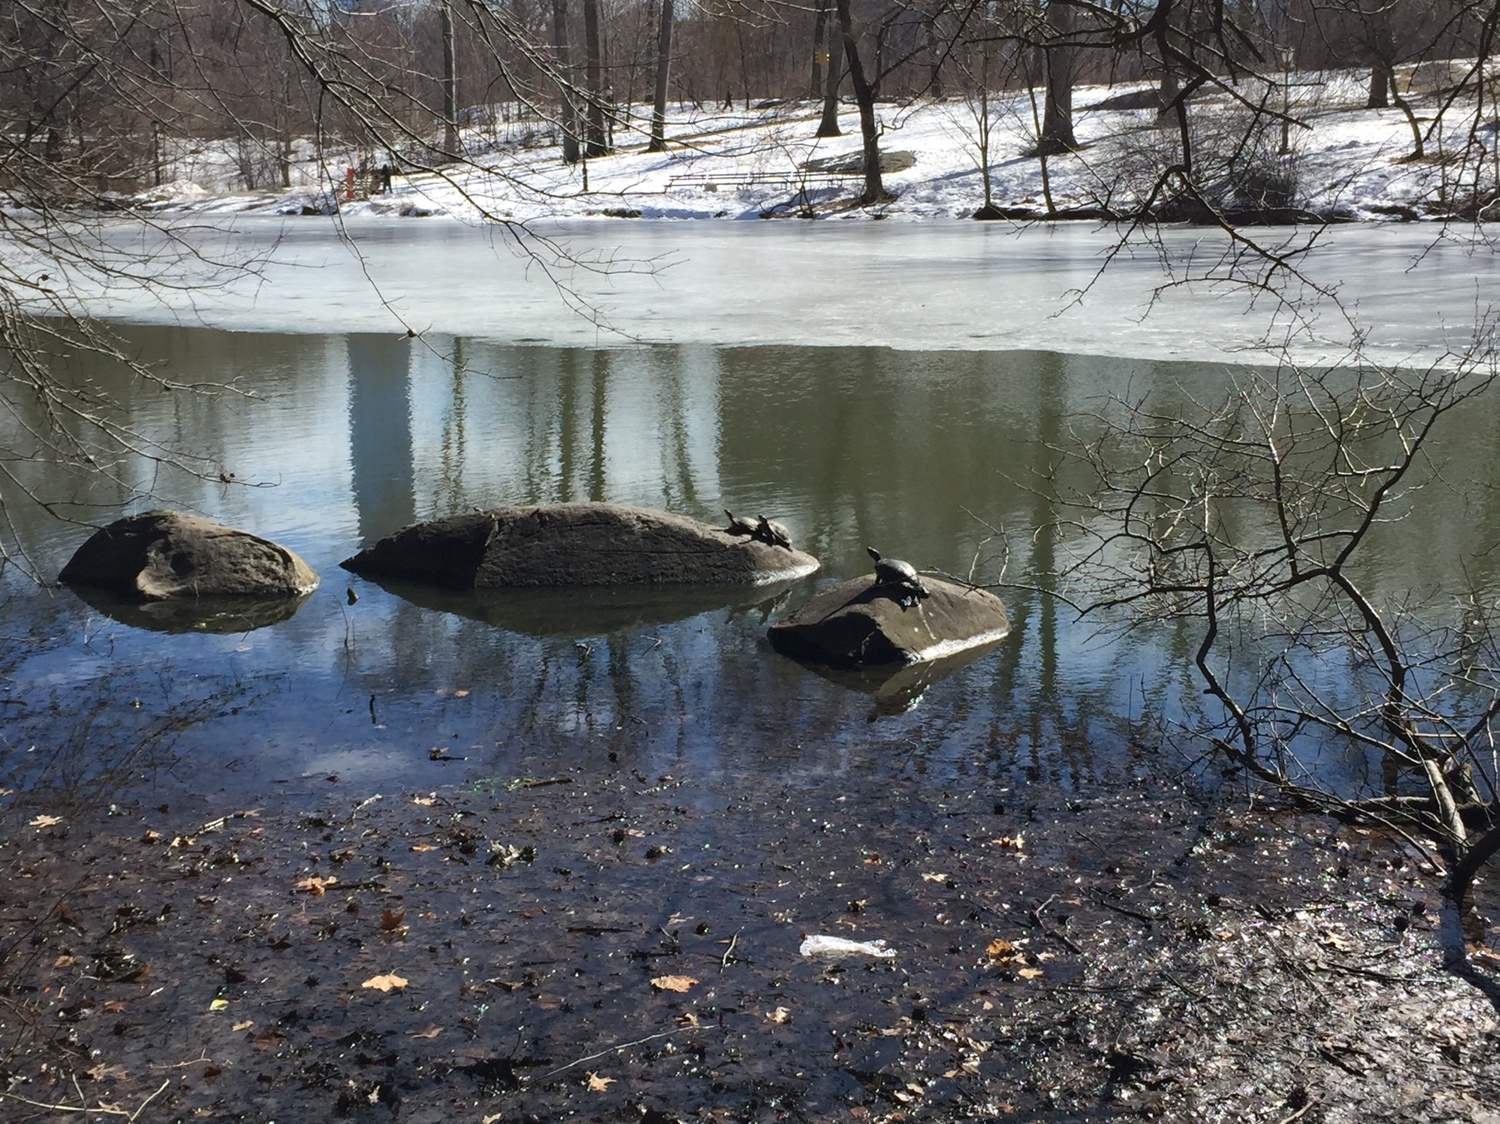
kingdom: Animalia
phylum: Chordata
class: Testudines
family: Emydidae
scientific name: Emydidae
